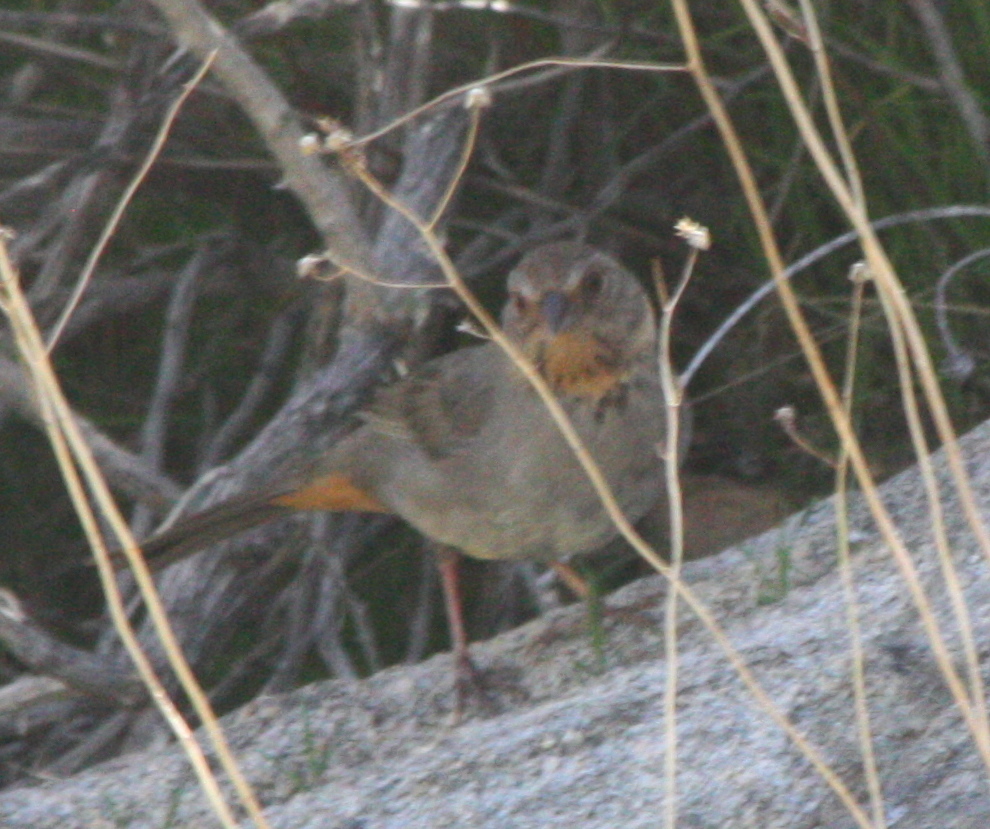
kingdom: Animalia
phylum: Chordata
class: Aves
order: Passeriformes
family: Passerellidae
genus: Melozone
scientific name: Melozone crissalis
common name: California towhee
